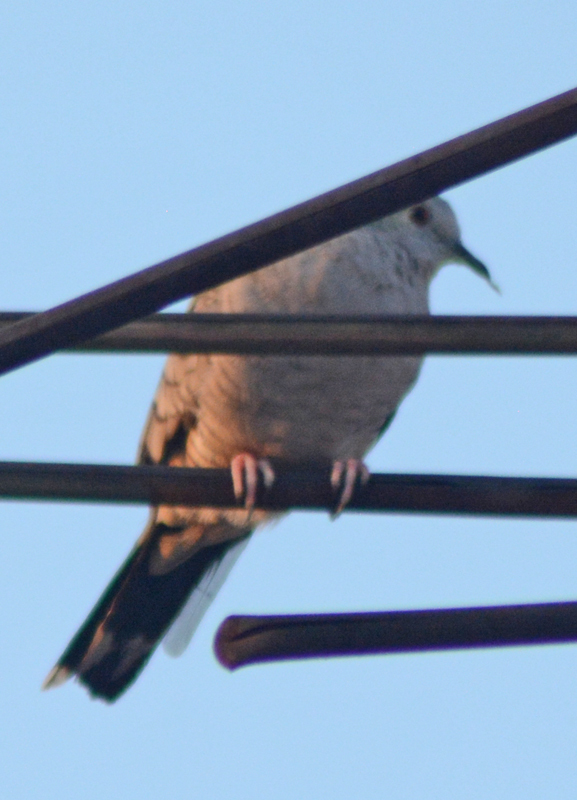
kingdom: Animalia
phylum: Chordata
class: Aves
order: Columbiformes
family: Columbidae
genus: Columbina
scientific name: Columbina inca
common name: Inca dove
